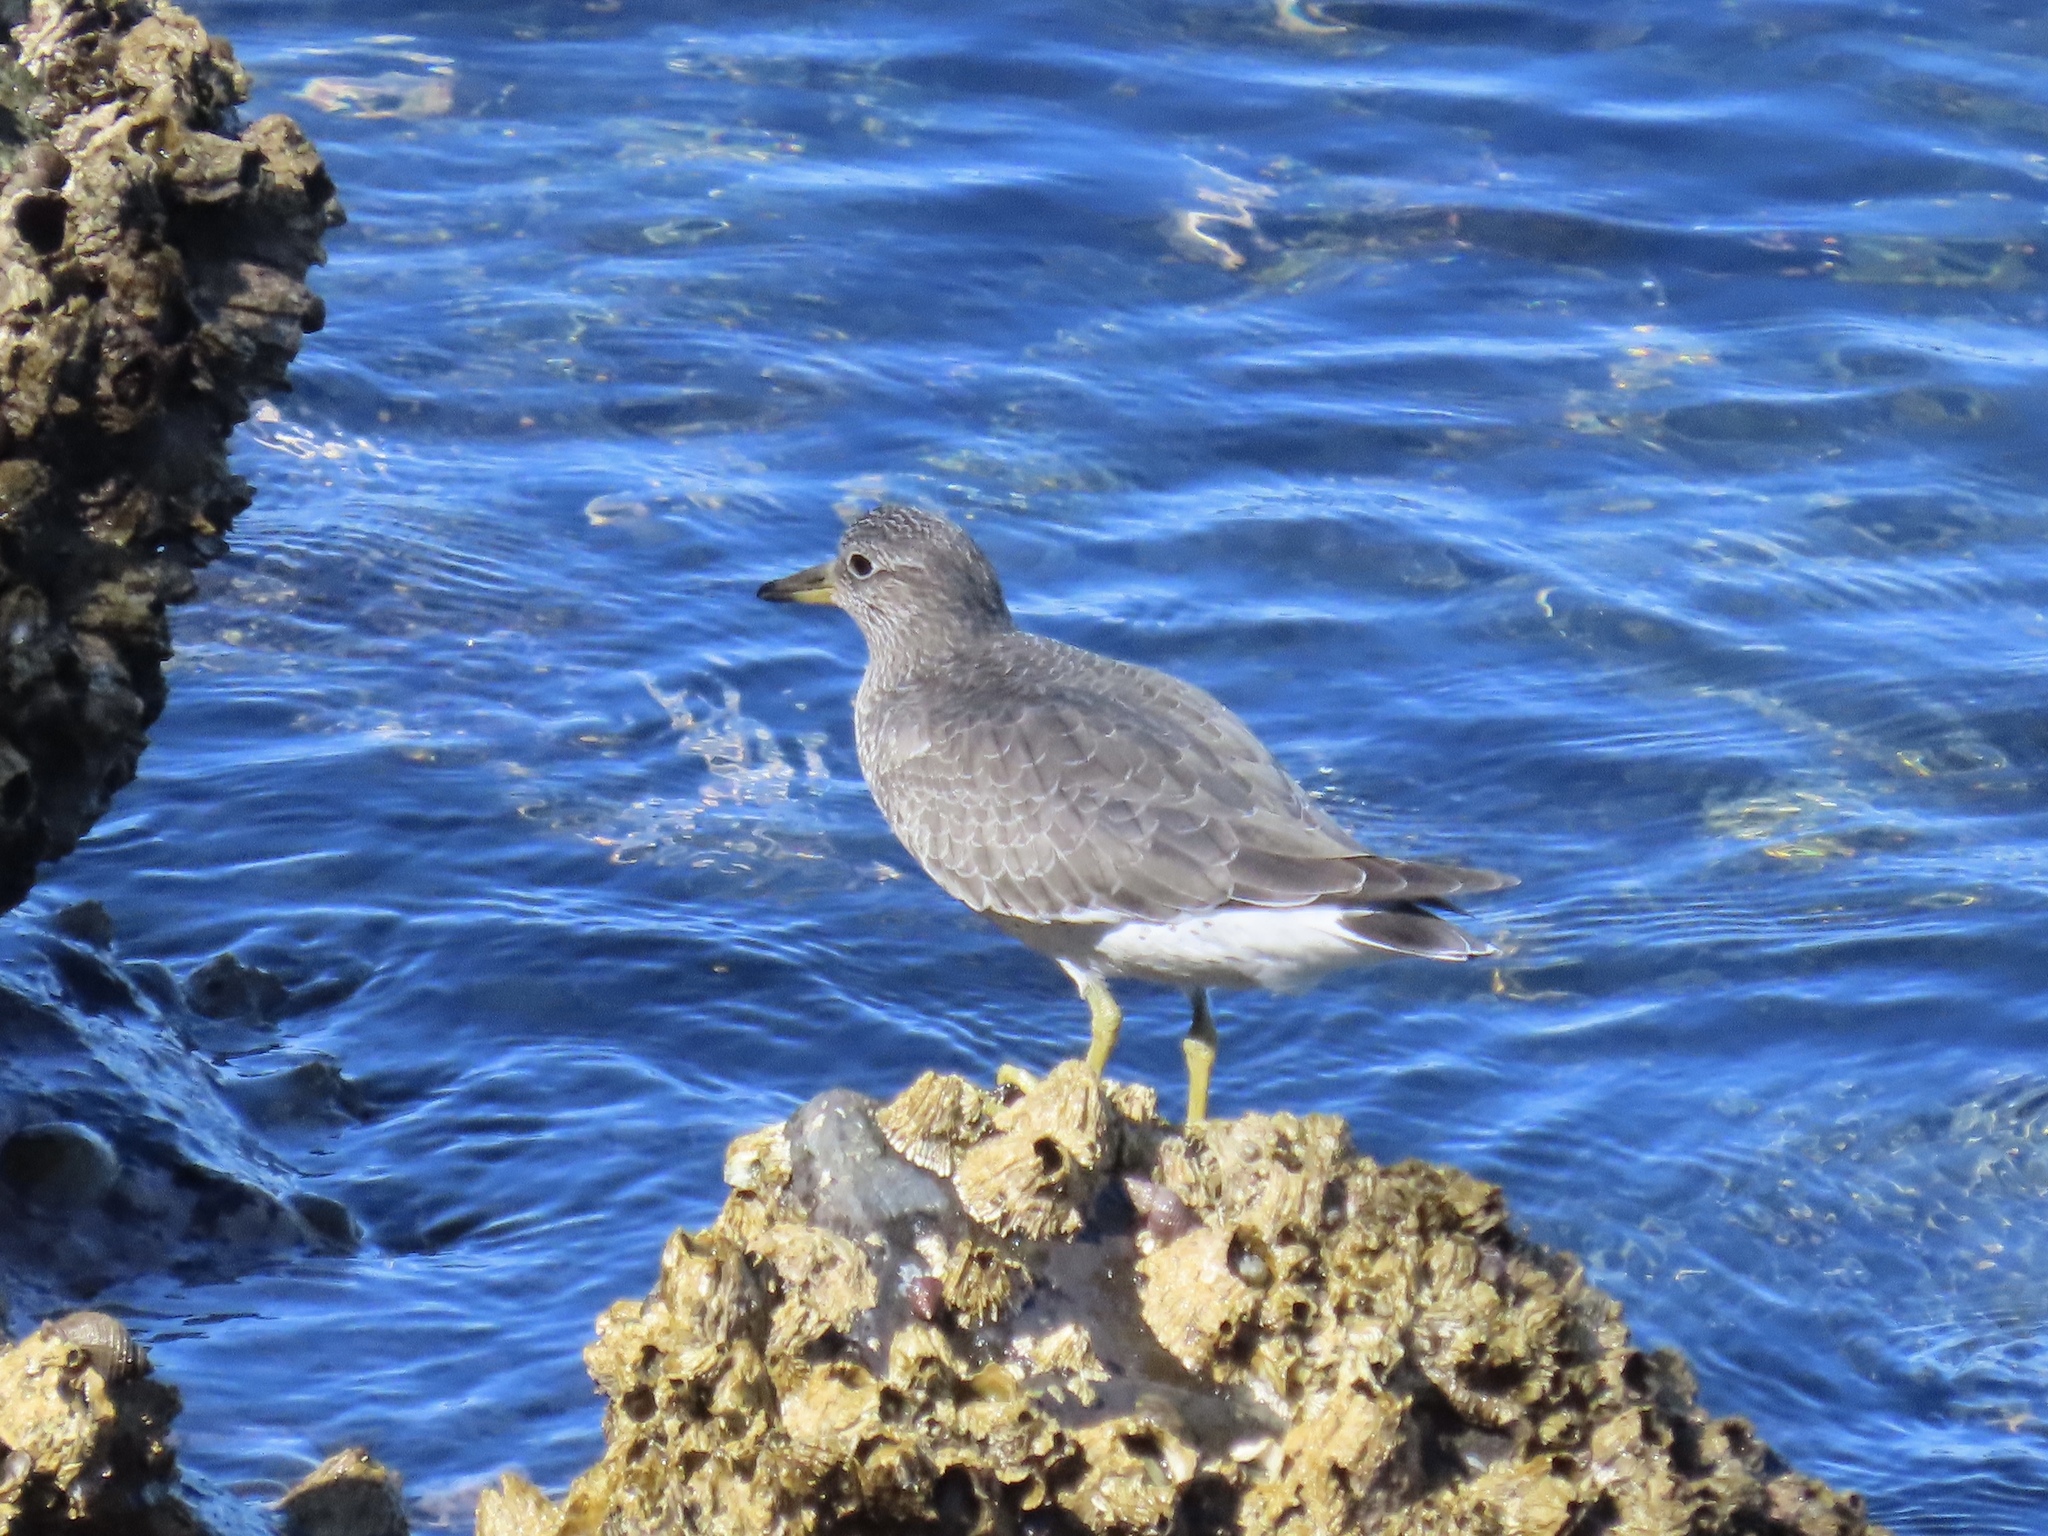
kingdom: Animalia
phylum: Chordata
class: Aves
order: Charadriiformes
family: Scolopacidae
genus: Calidris
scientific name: Calidris virgata
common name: Surfbird
